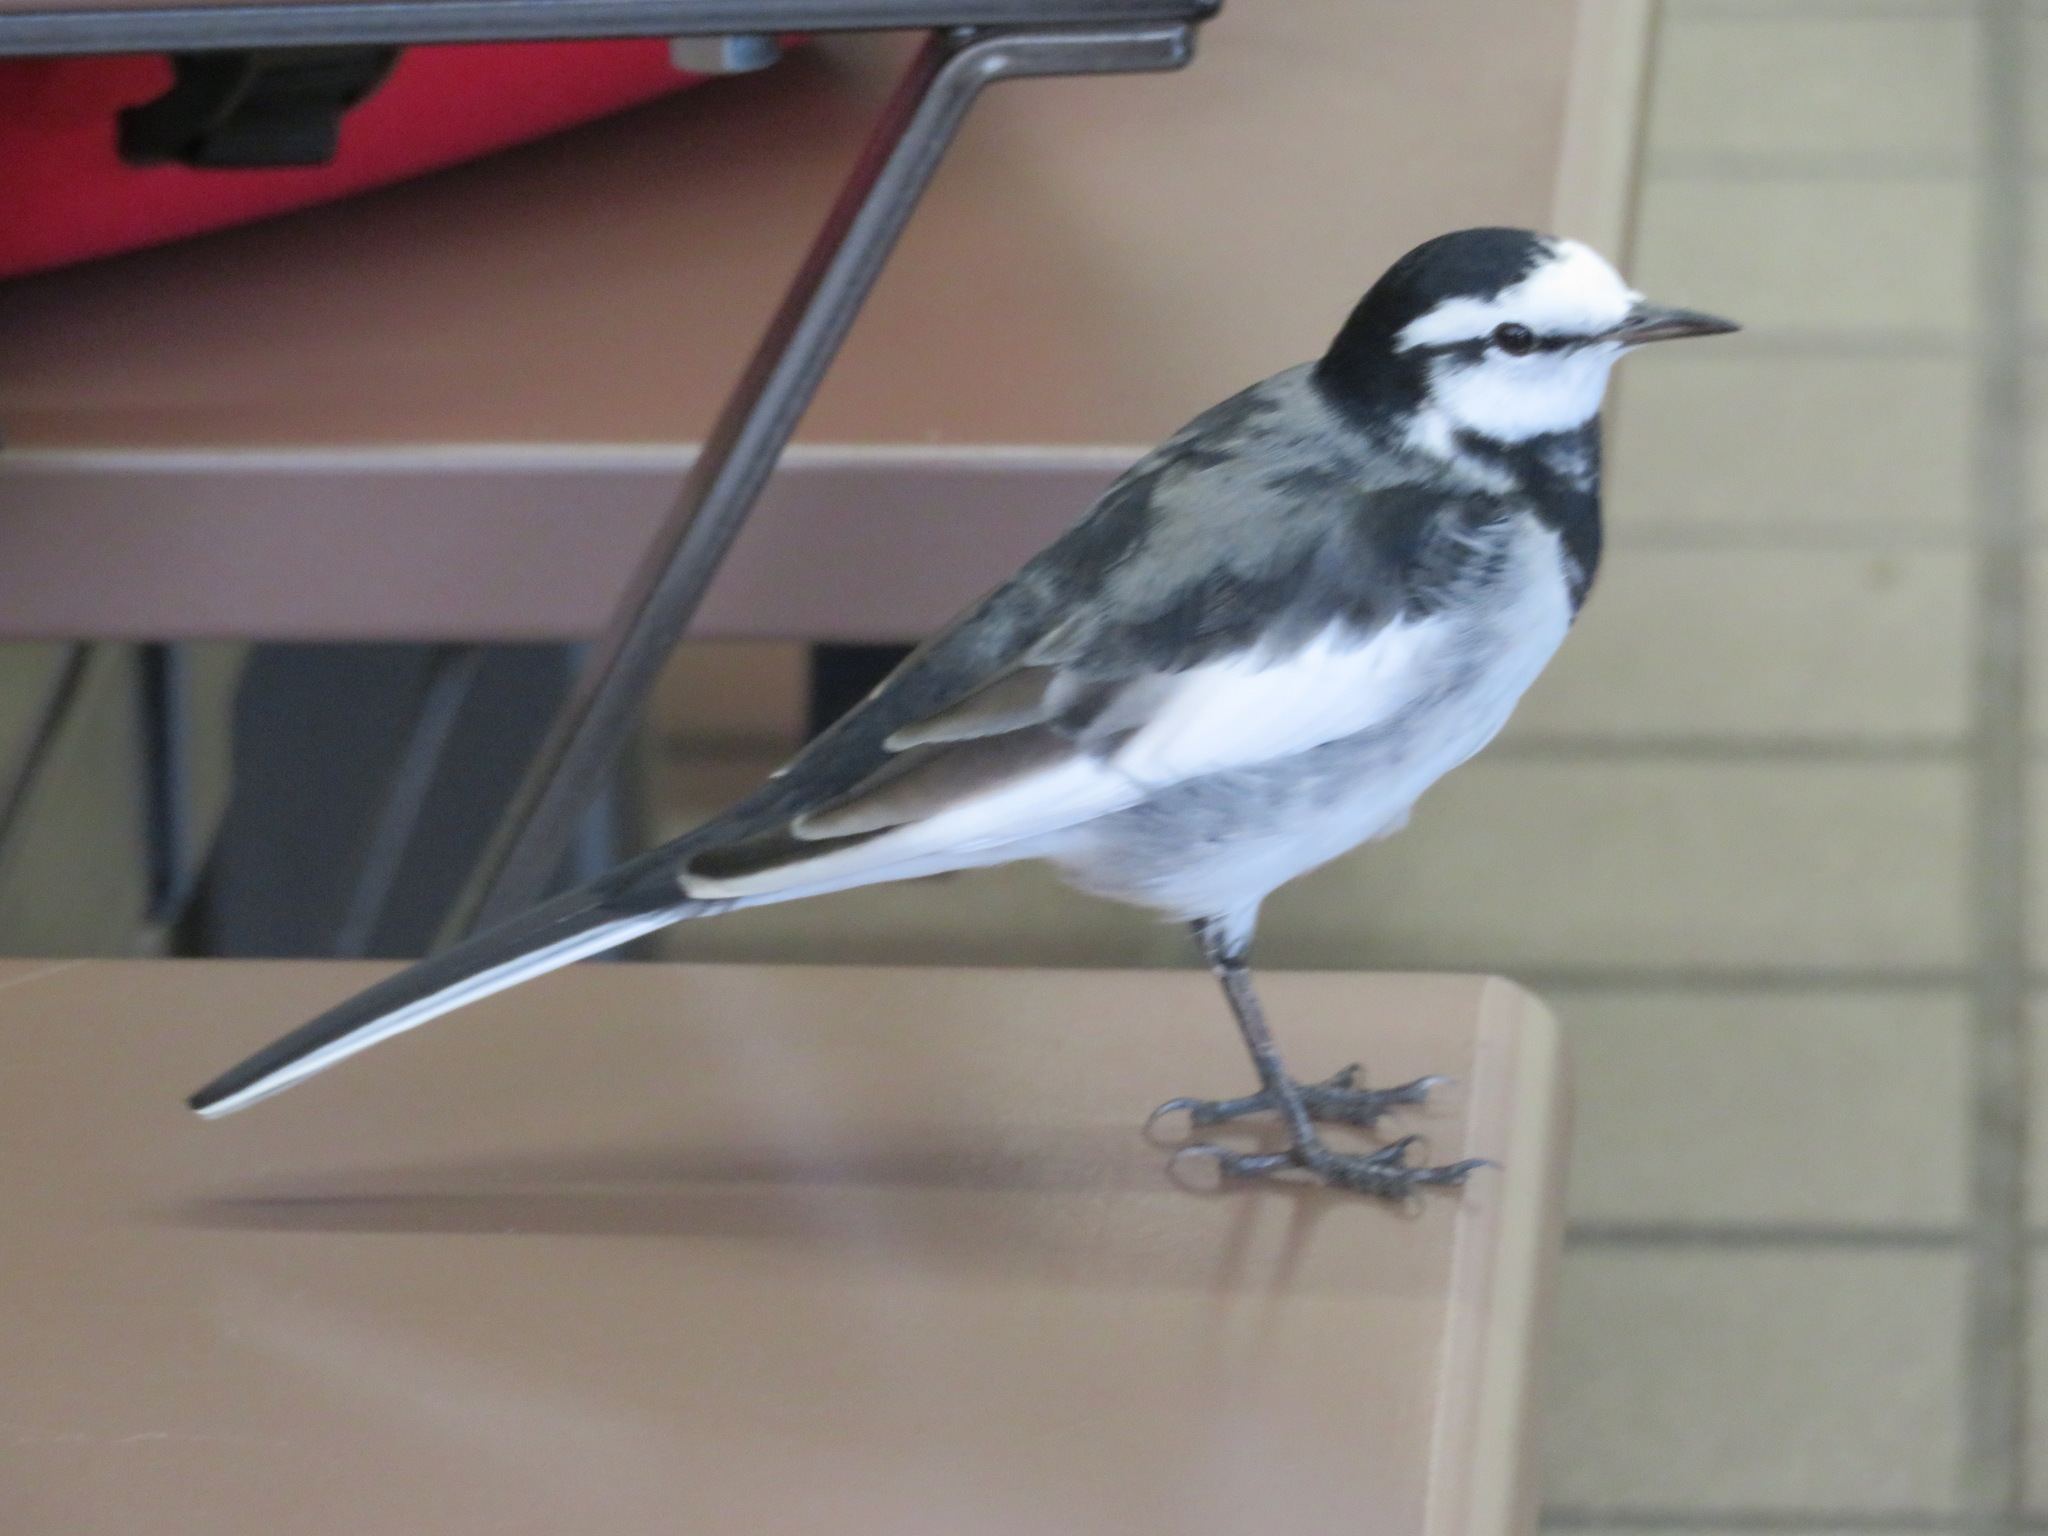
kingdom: Animalia
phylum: Chordata
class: Aves
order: Passeriformes
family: Motacillidae
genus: Motacilla
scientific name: Motacilla alba
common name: White wagtail
